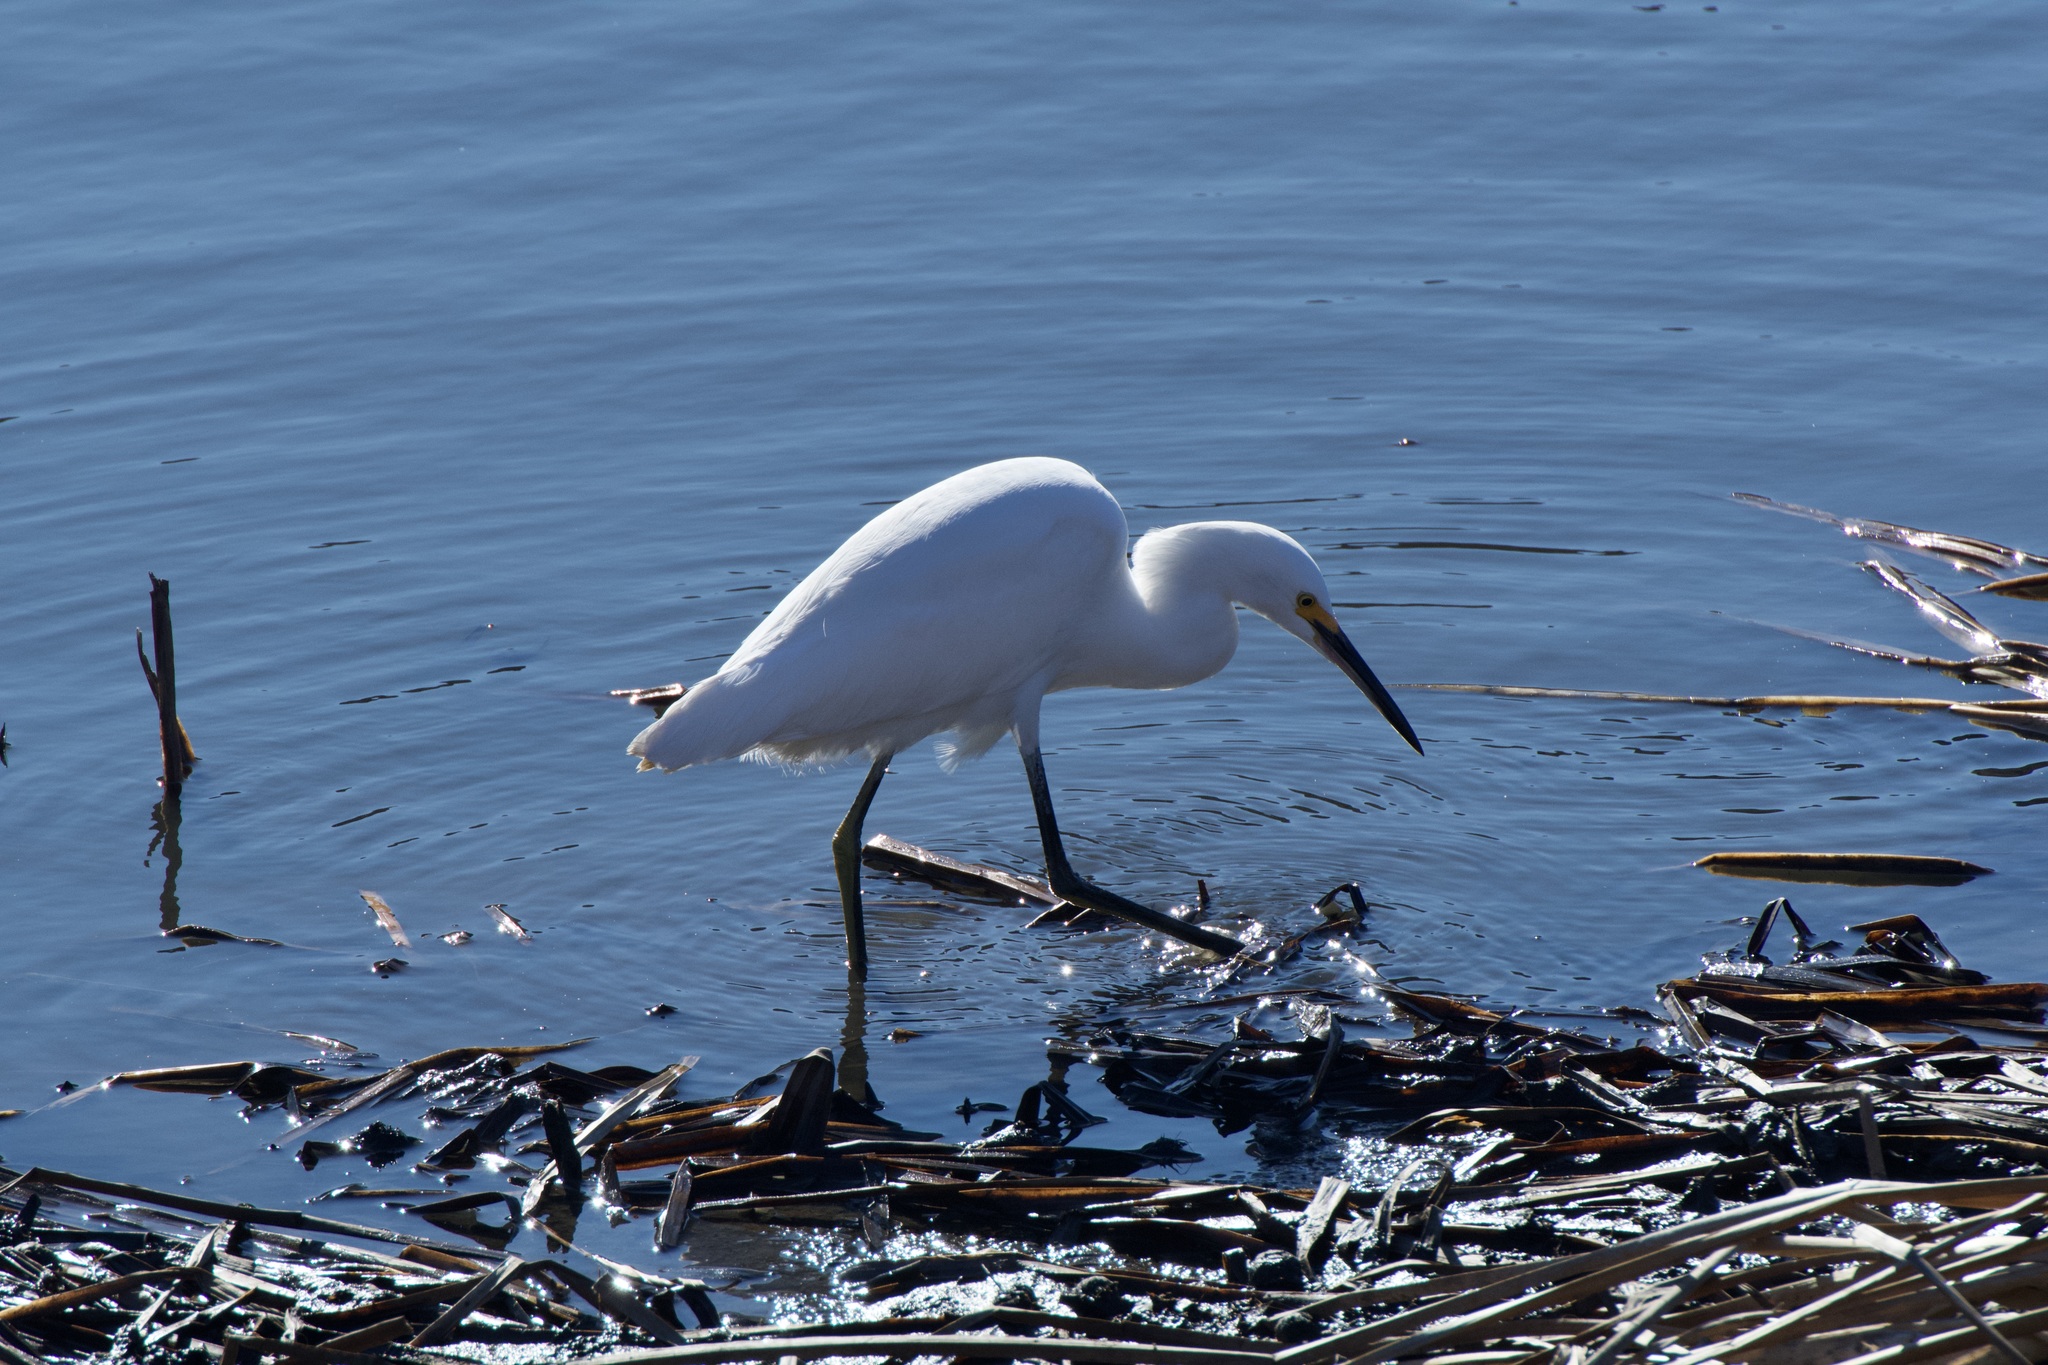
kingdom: Animalia
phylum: Chordata
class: Aves
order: Pelecaniformes
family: Ardeidae
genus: Egretta
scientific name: Egretta thula
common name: Snowy egret
